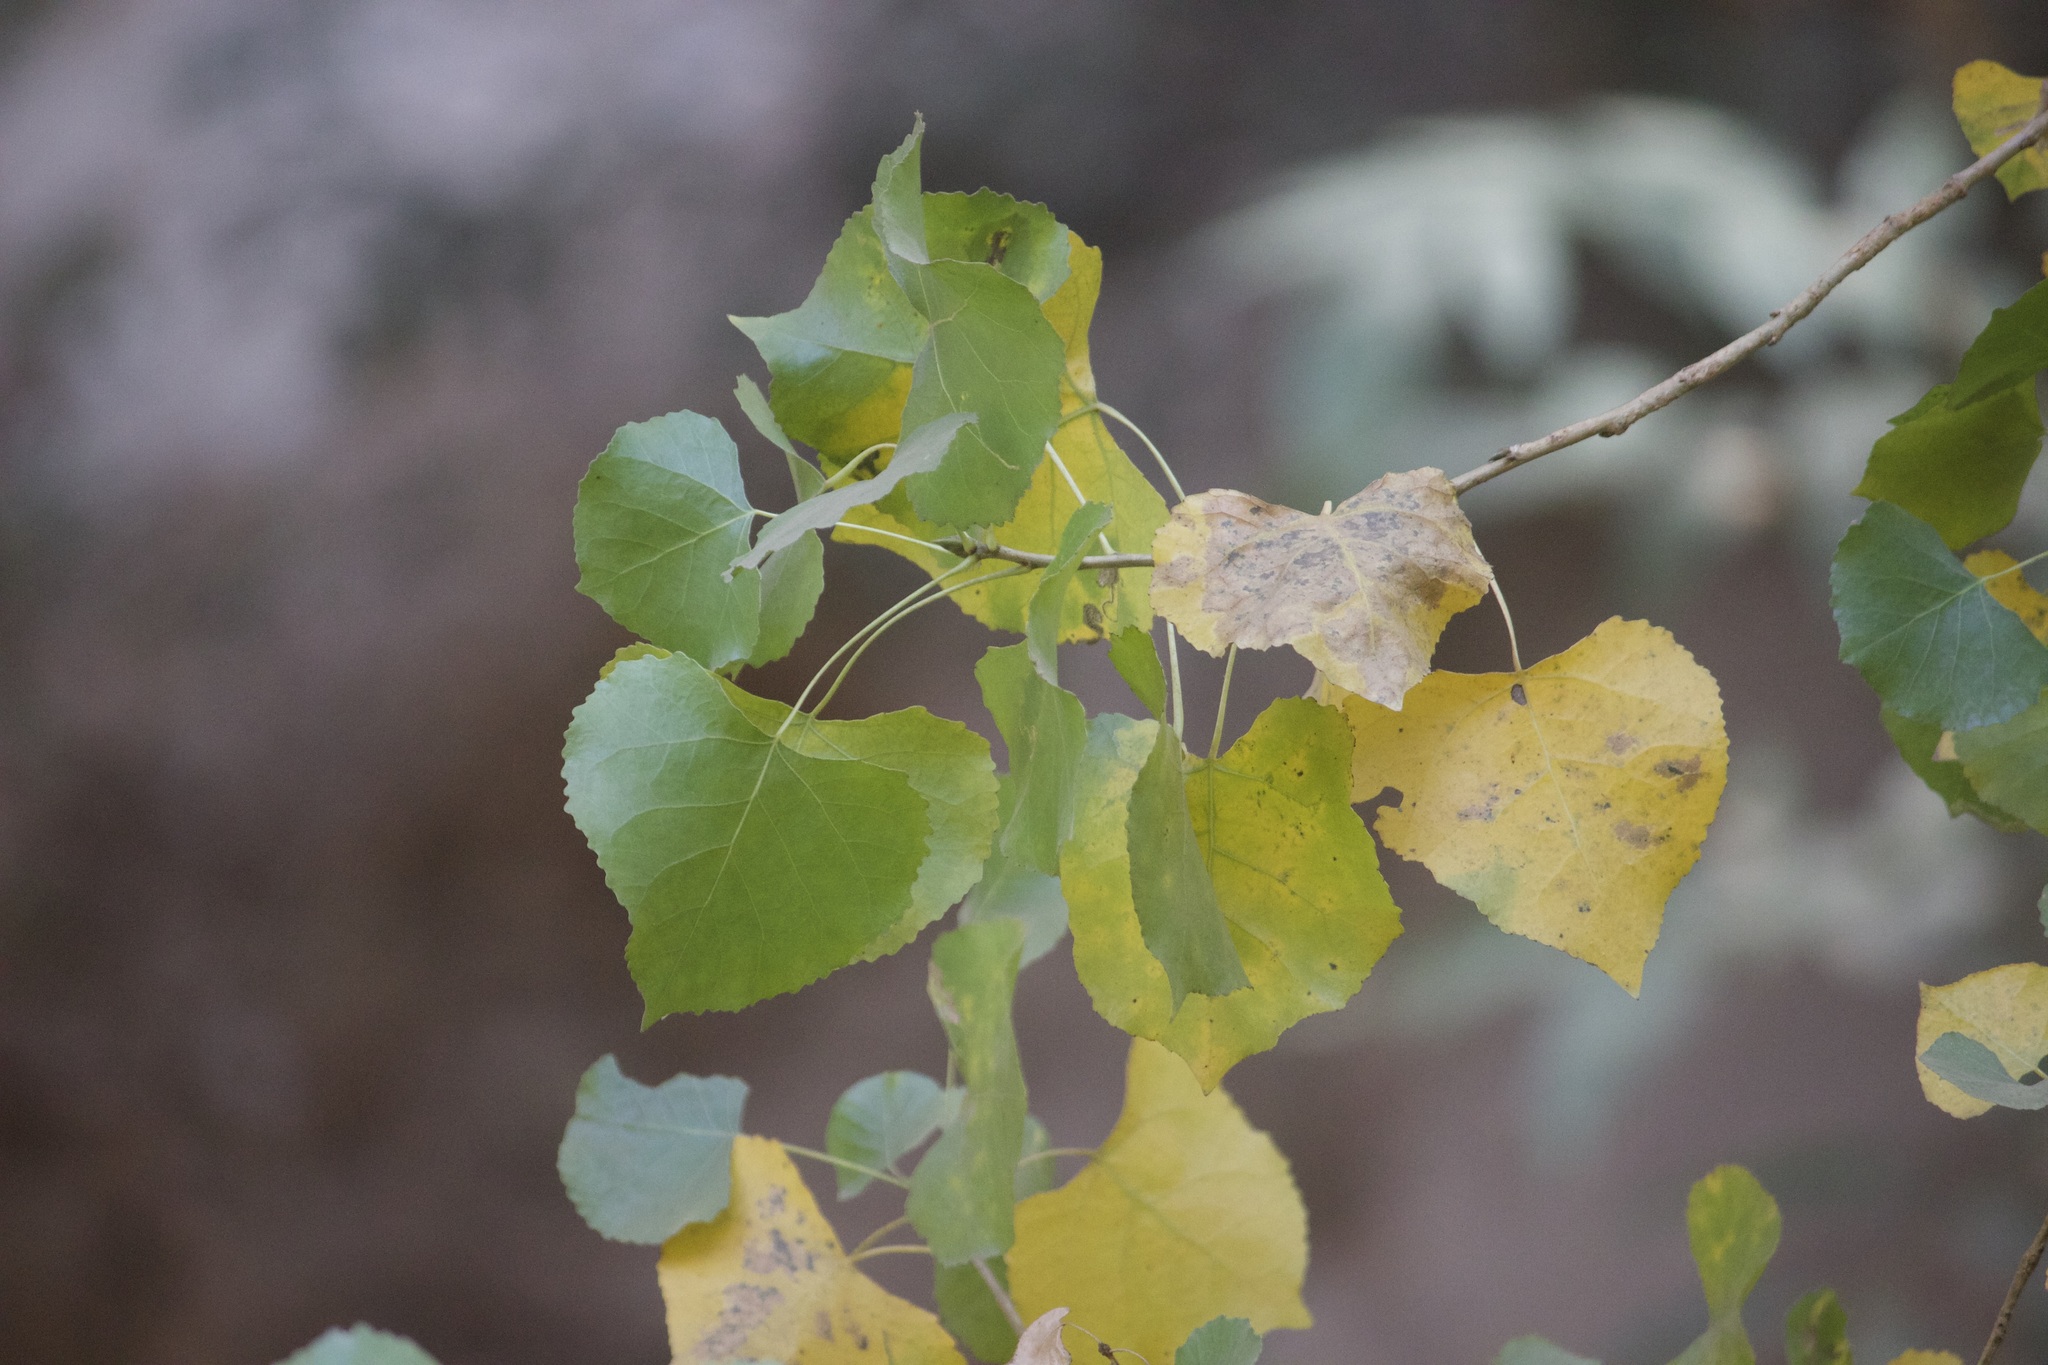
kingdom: Plantae
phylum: Tracheophyta
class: Magnoliopsida
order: Malpighiales
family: Salicaceae
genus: Populus
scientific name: Populus fremontii
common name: Fremont's cottonwood
